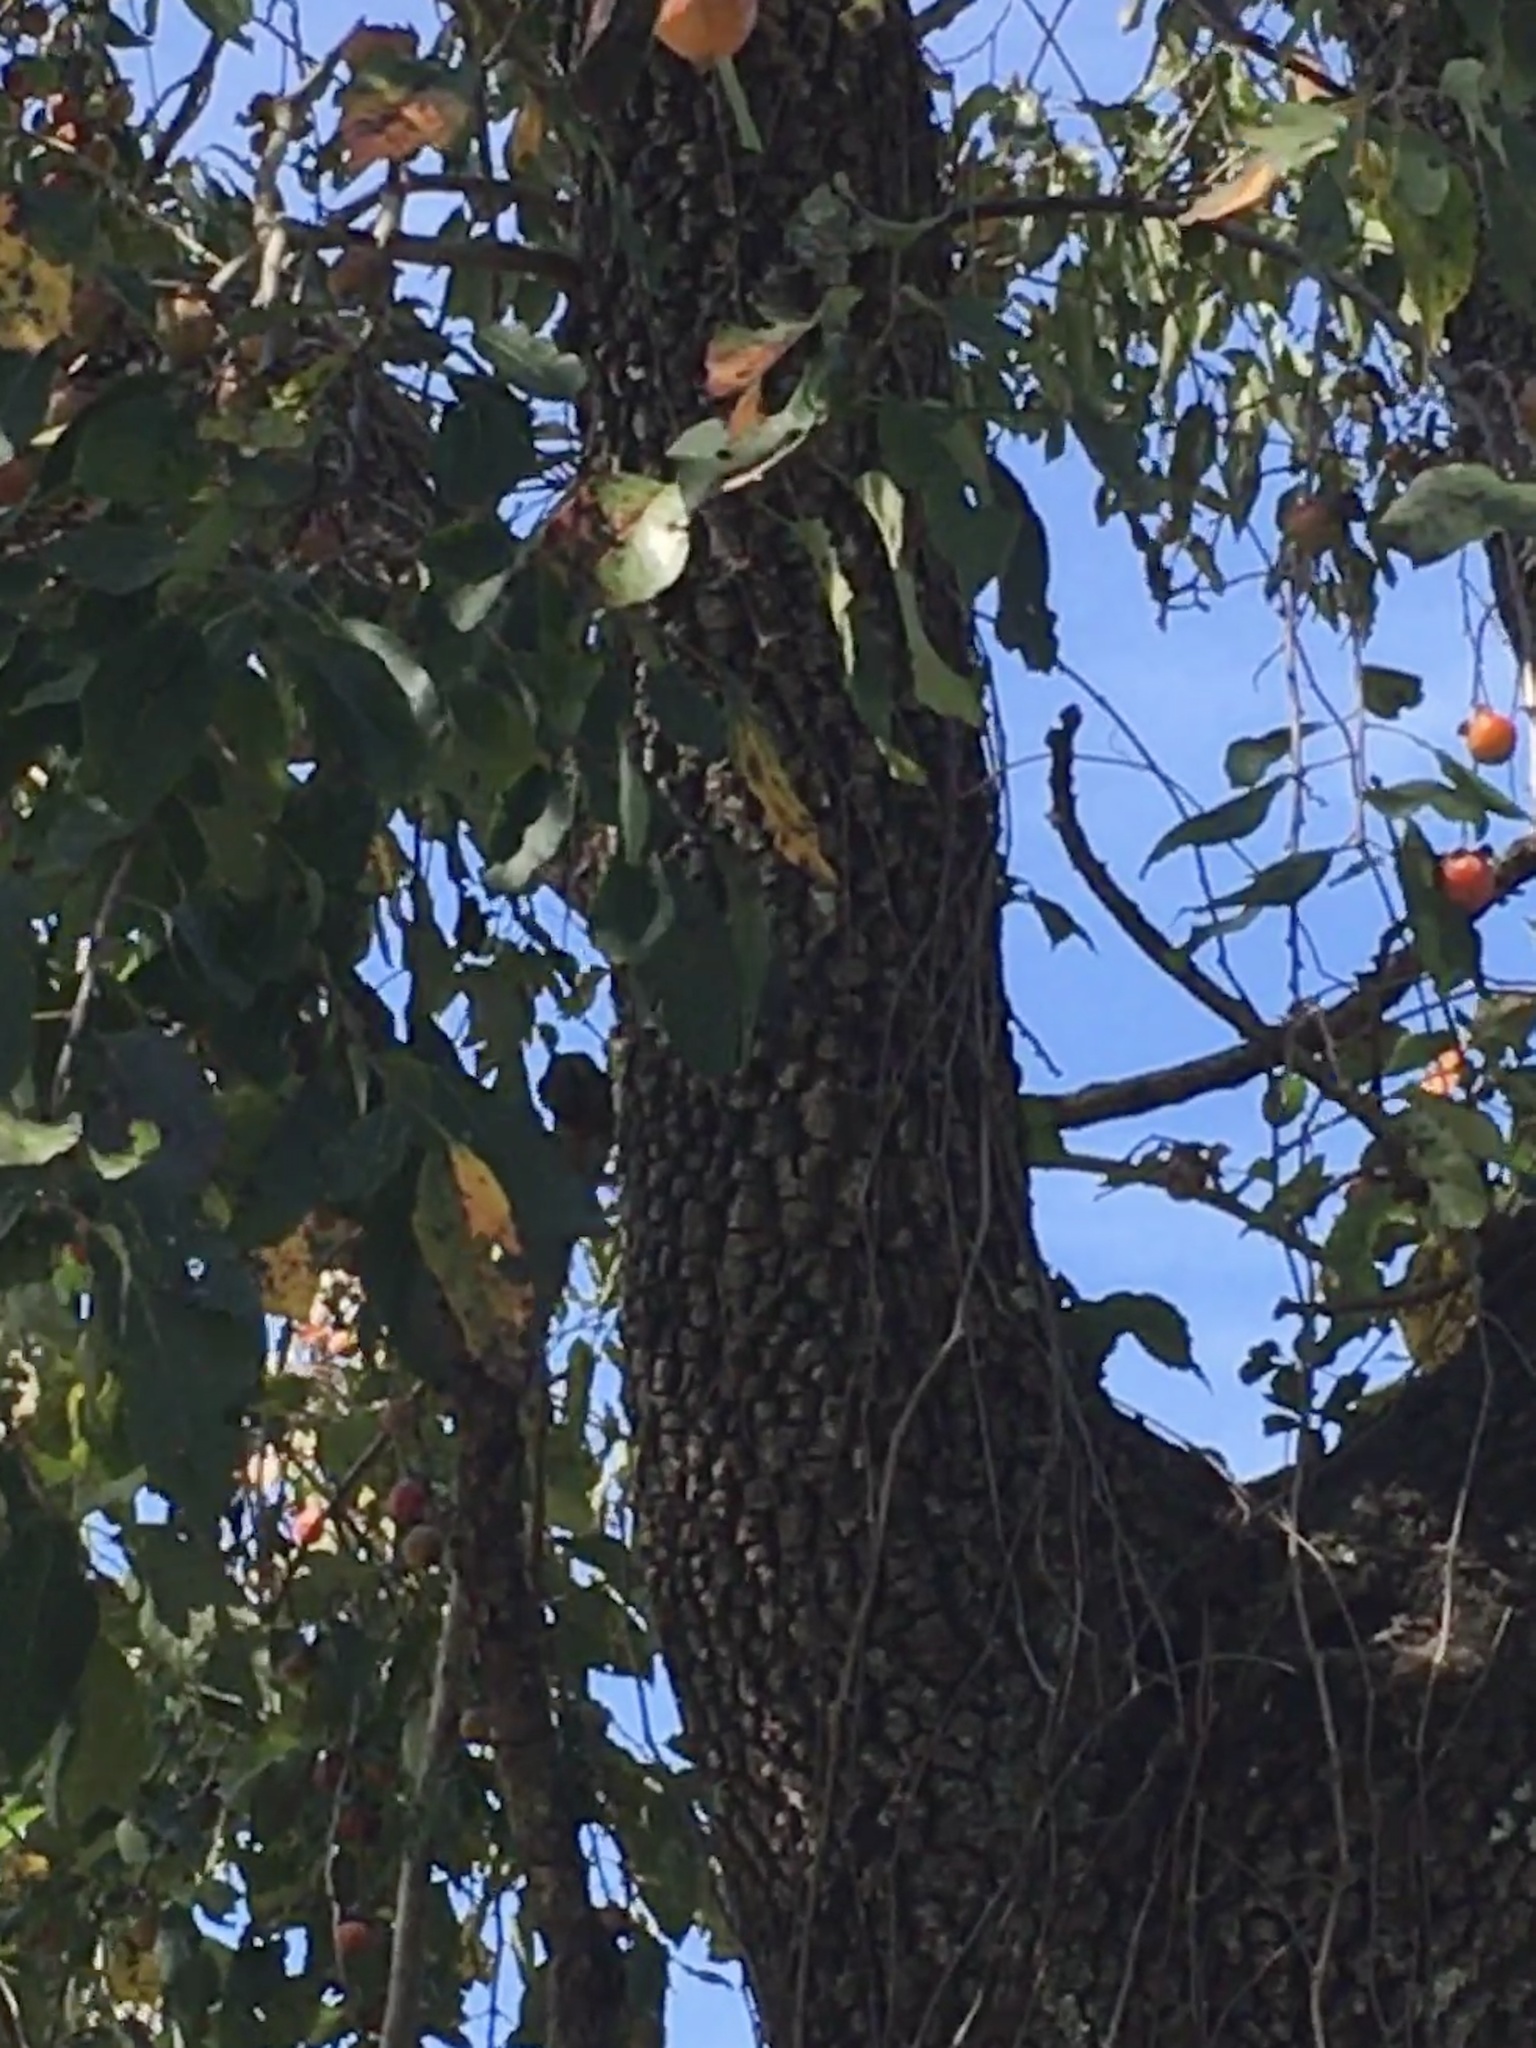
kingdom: Plantae
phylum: Tracheophyta
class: Magnoliopsida
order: Ericales
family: Ebenaceae
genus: Diospyros
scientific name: Diospyros virginiana
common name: Persimmon
